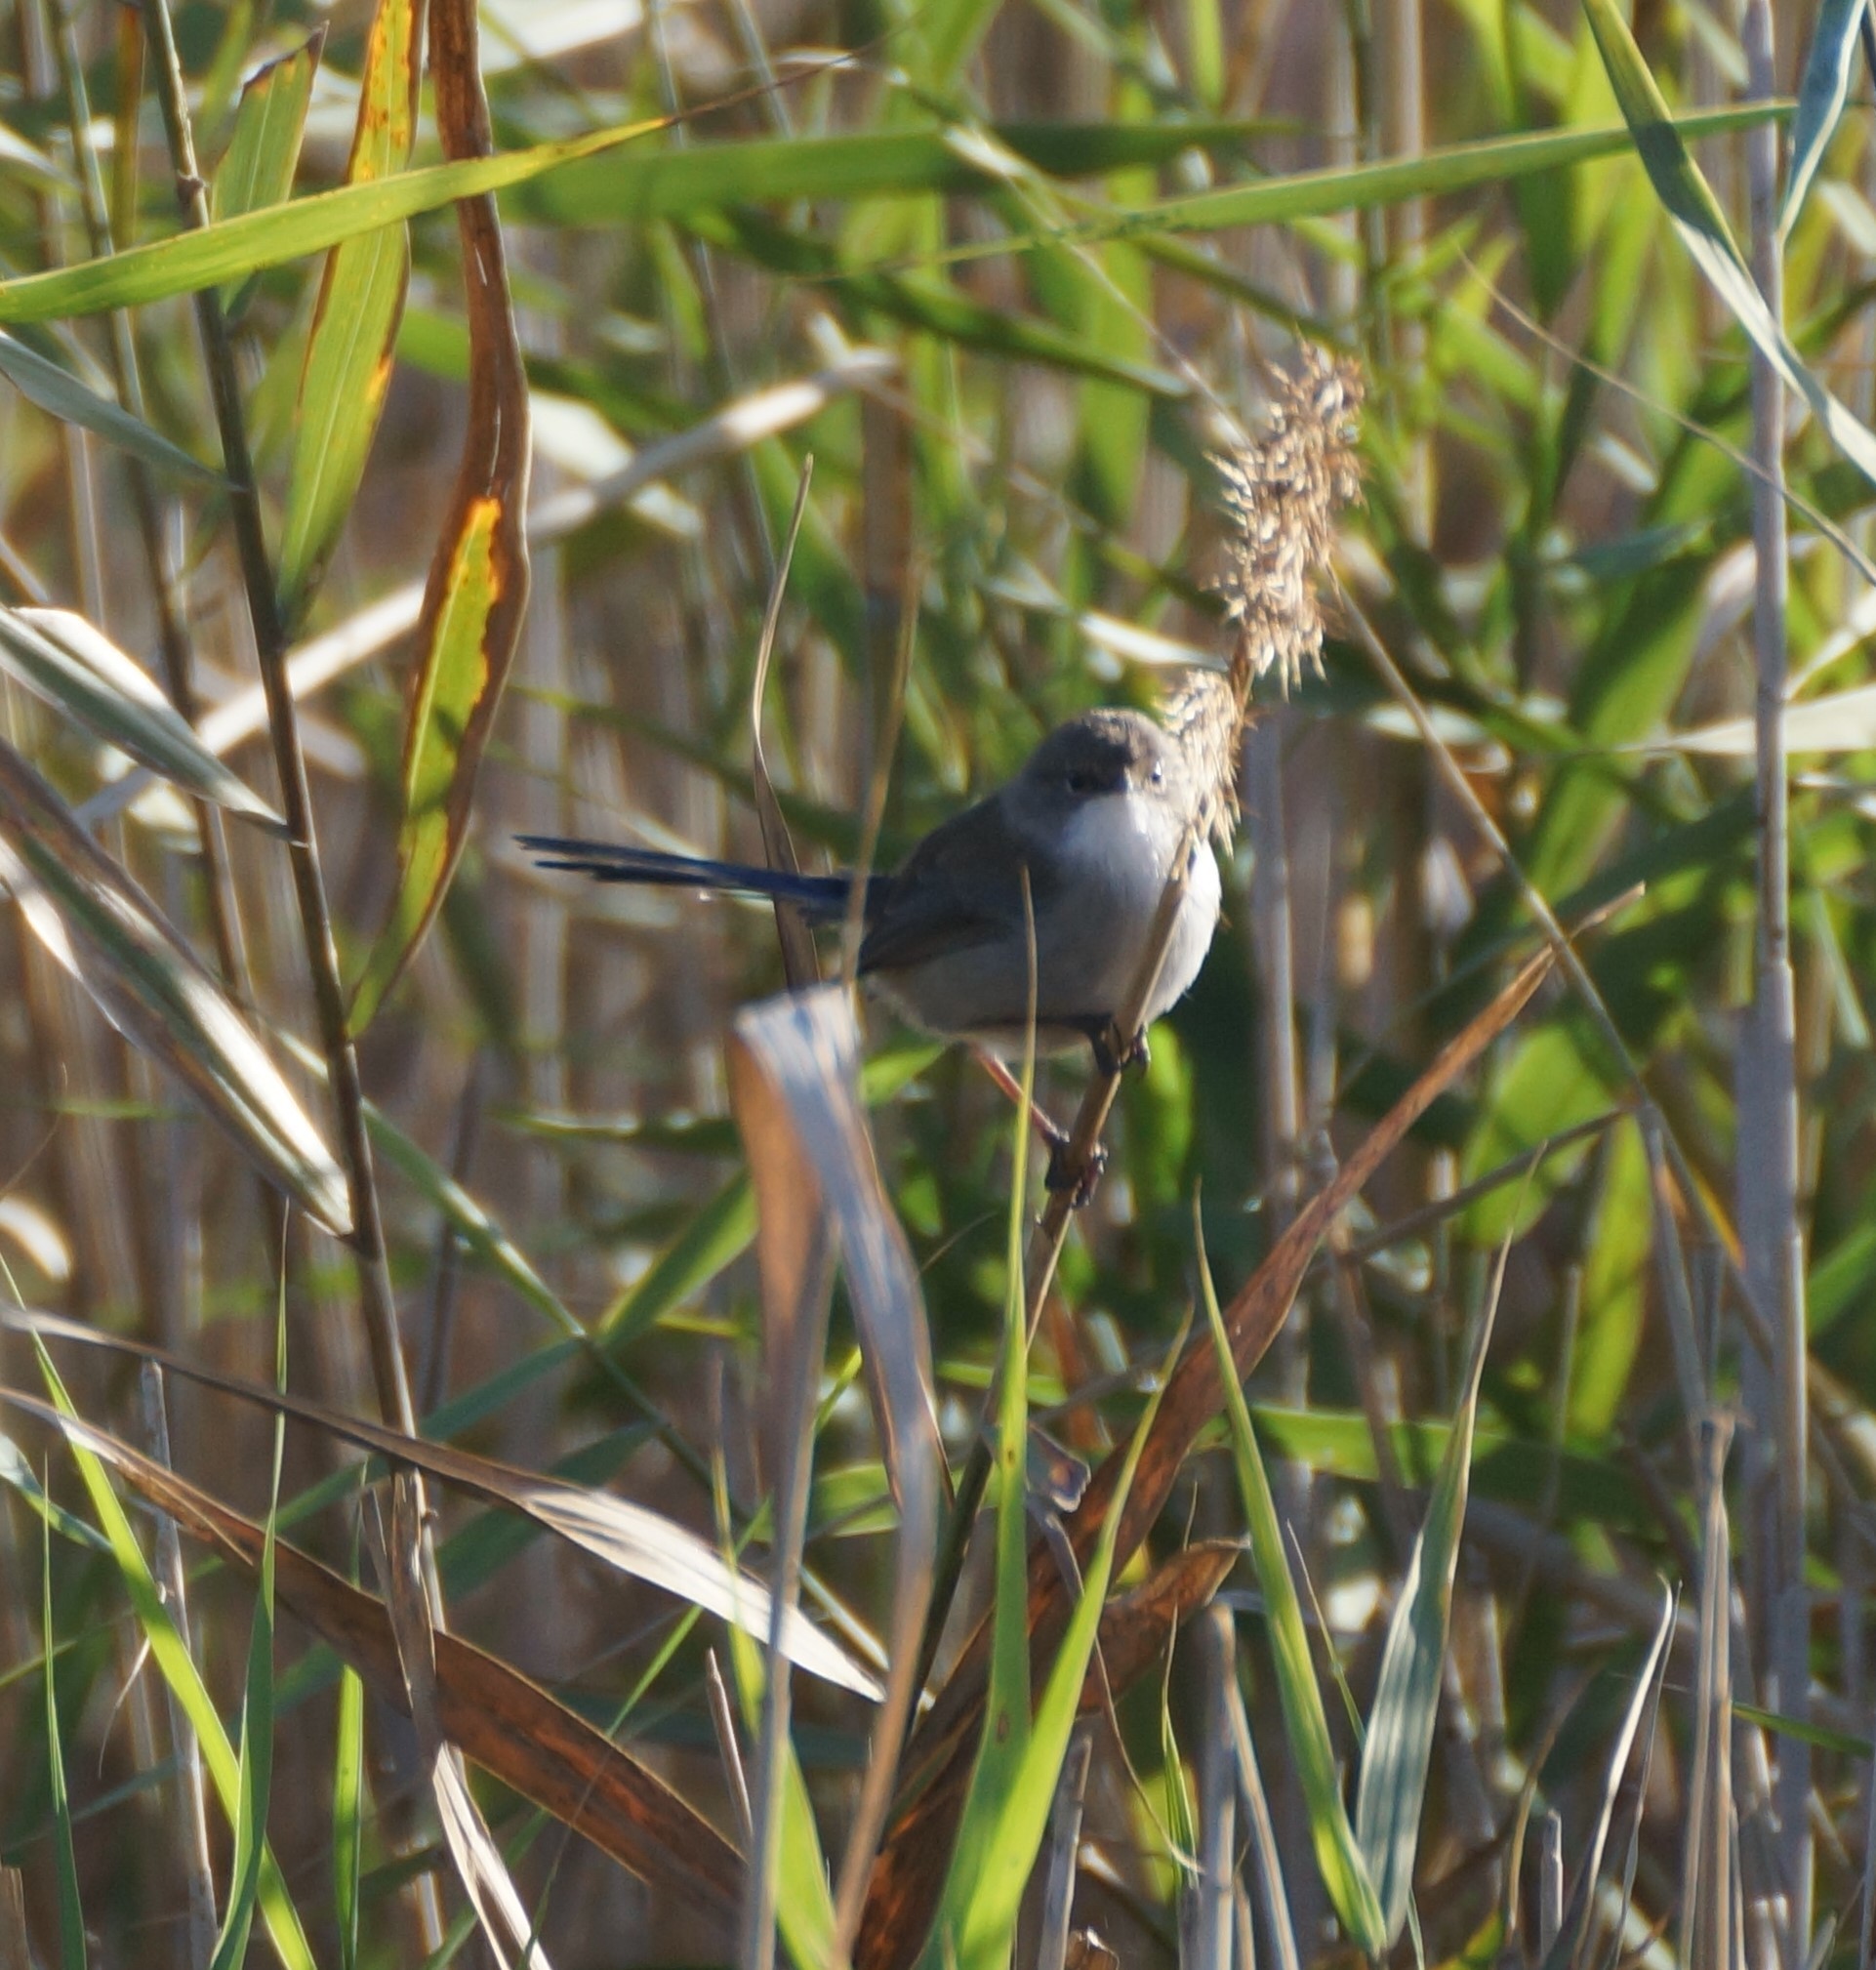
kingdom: Animalia
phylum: Chordata
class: Aves
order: Passeriformes
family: Maluridae
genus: Malurus
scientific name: Malurus cyaneus
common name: Superb fairywren
